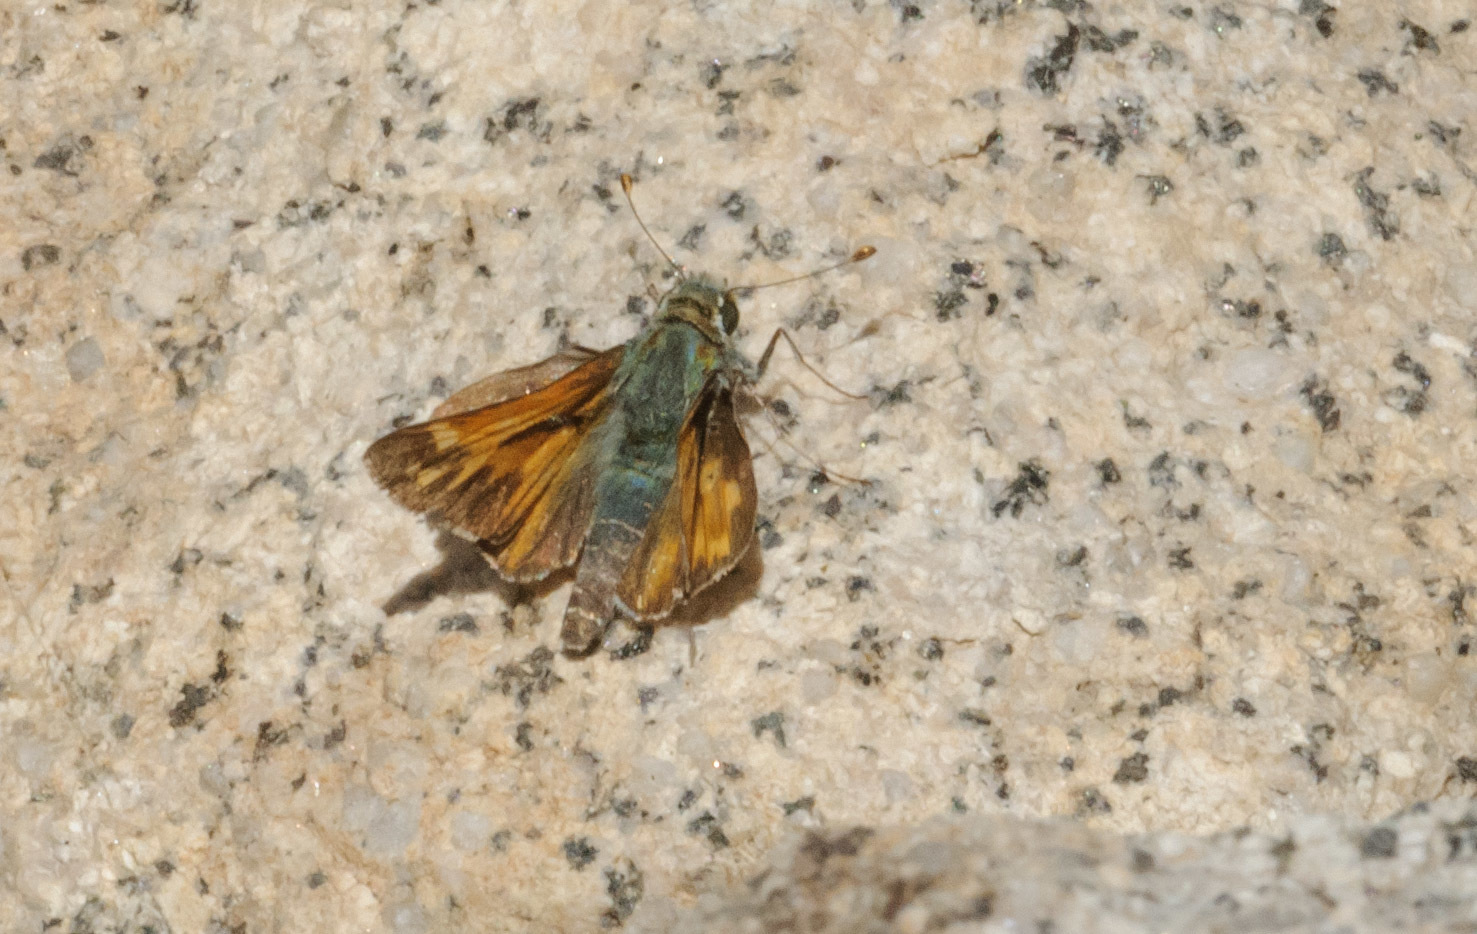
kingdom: Animalia
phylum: Arthropoda
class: Insecta
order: Lepidoptera
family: Hesperiidae
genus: Hesperia
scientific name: Hesperia juba
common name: Juba skipper
